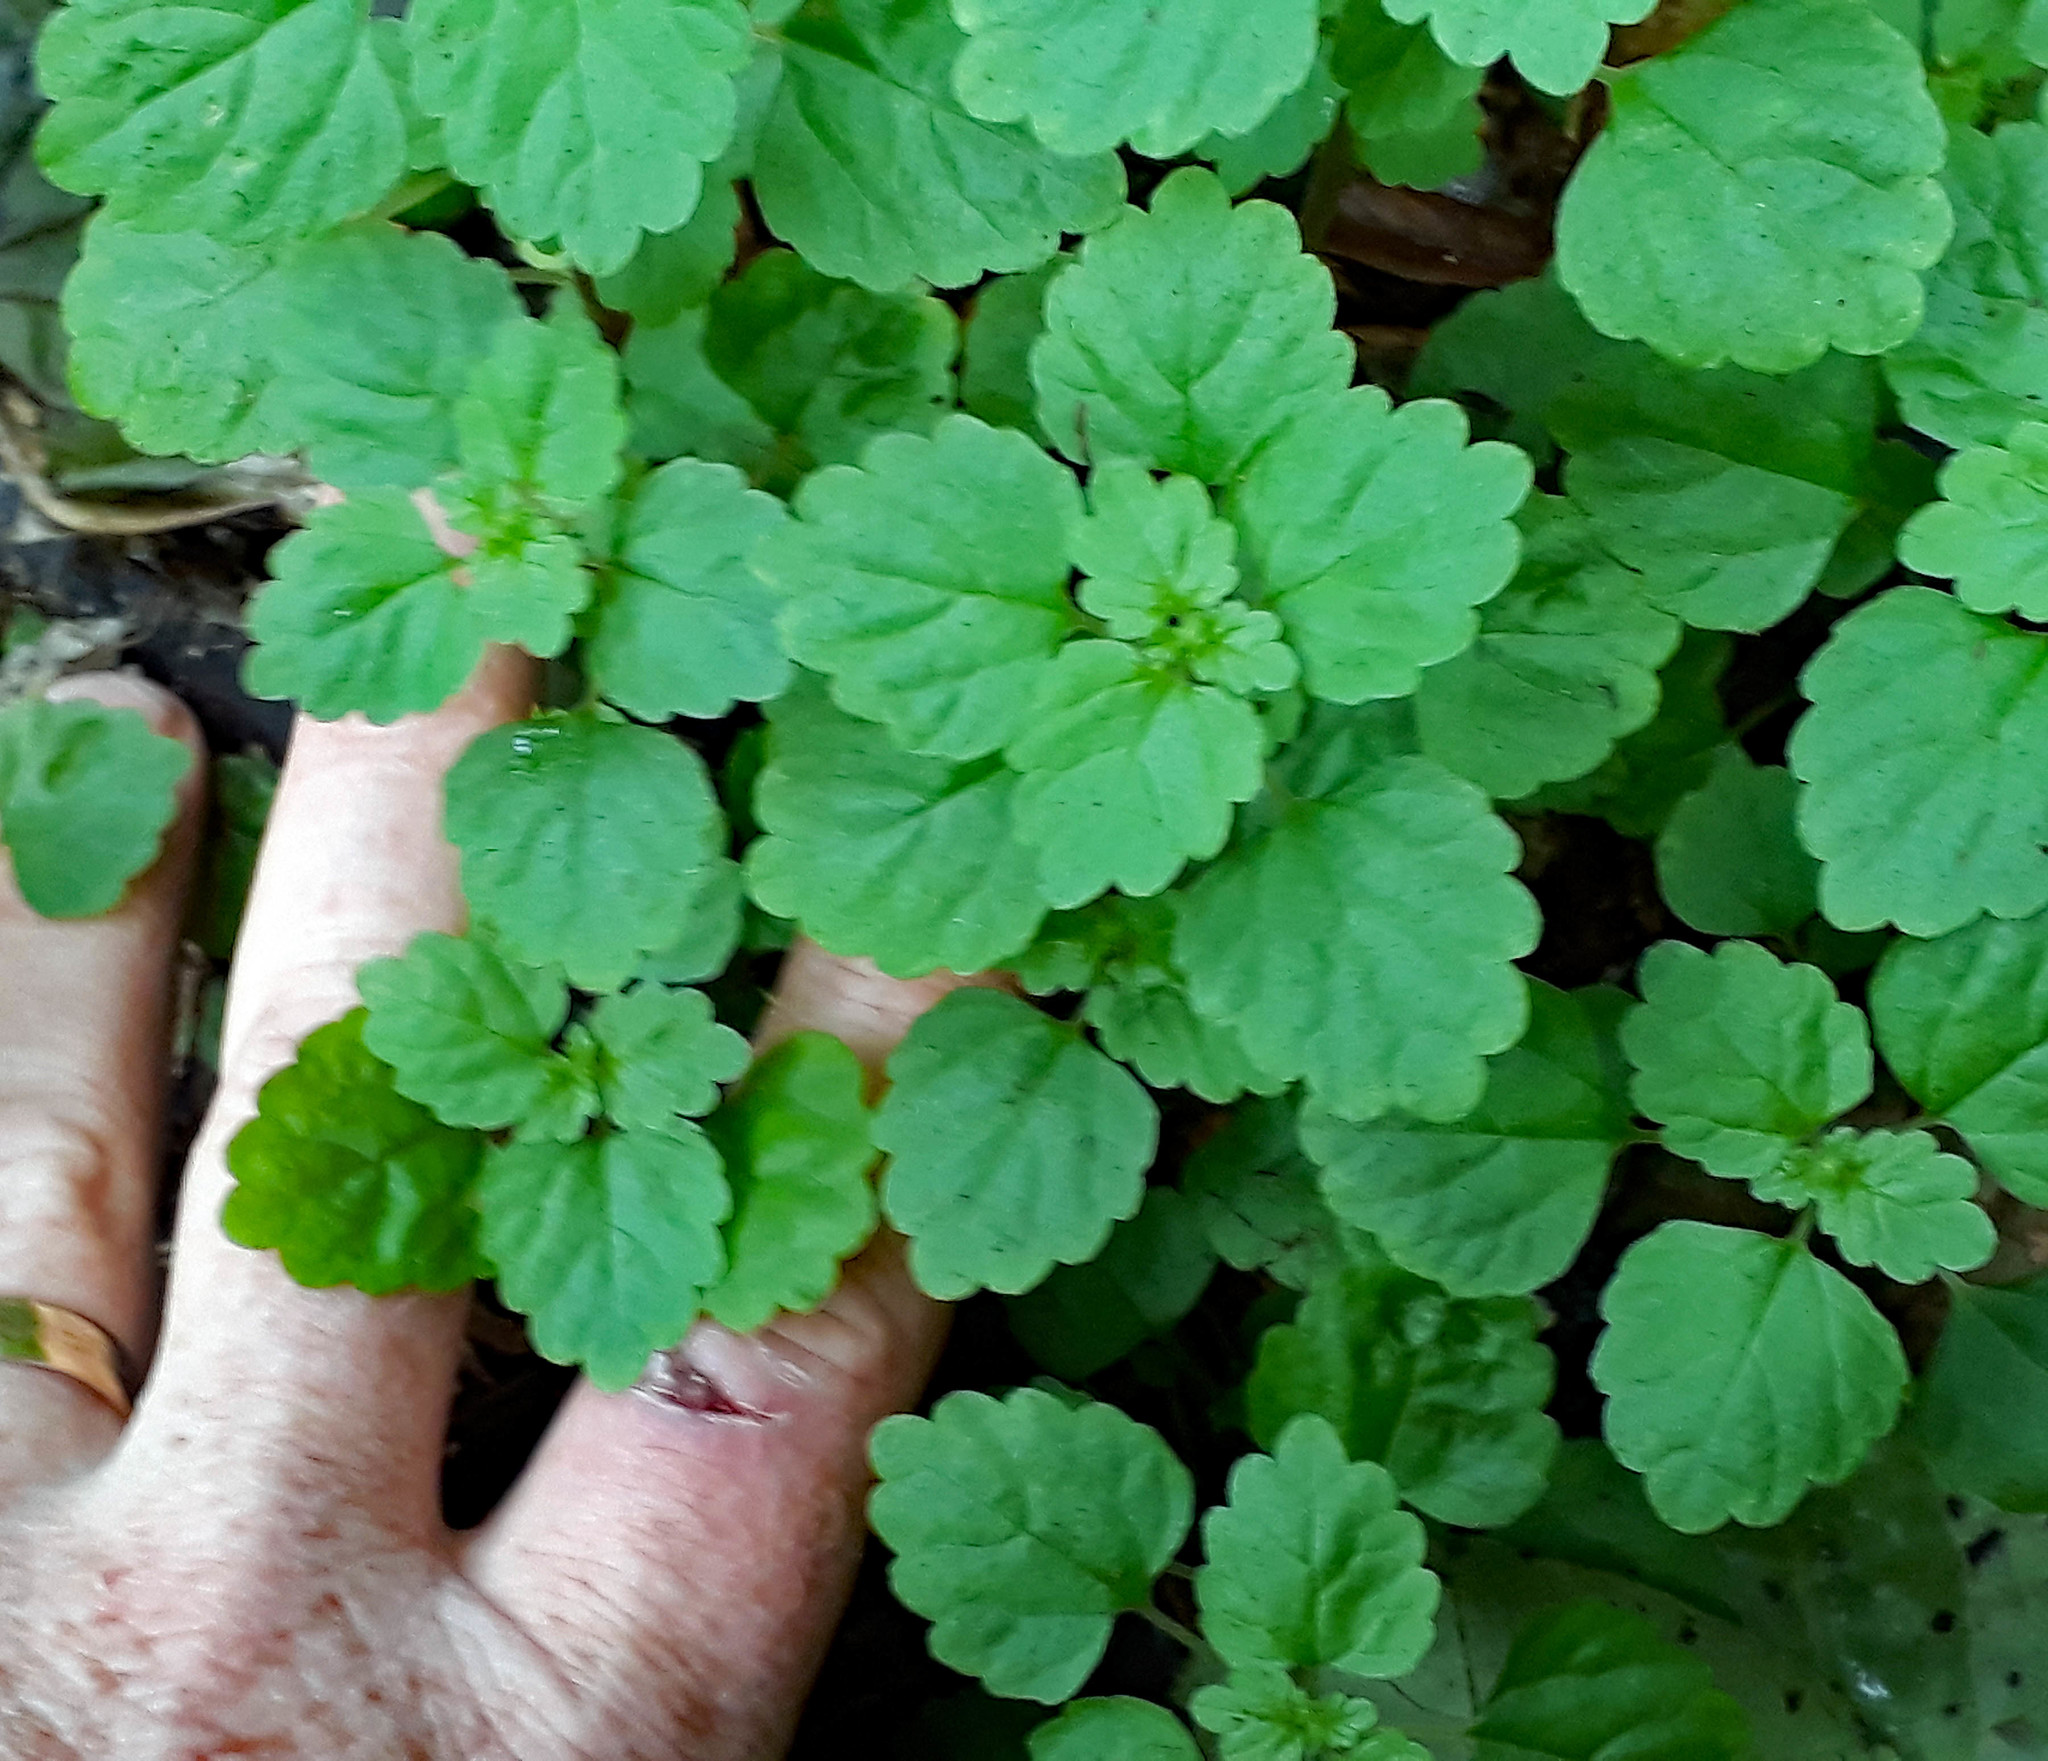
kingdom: Plantae
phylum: Tracheophyta
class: Magnoliopsida
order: Rosales
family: Urticaceae
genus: Australina
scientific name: Australina pusilla
